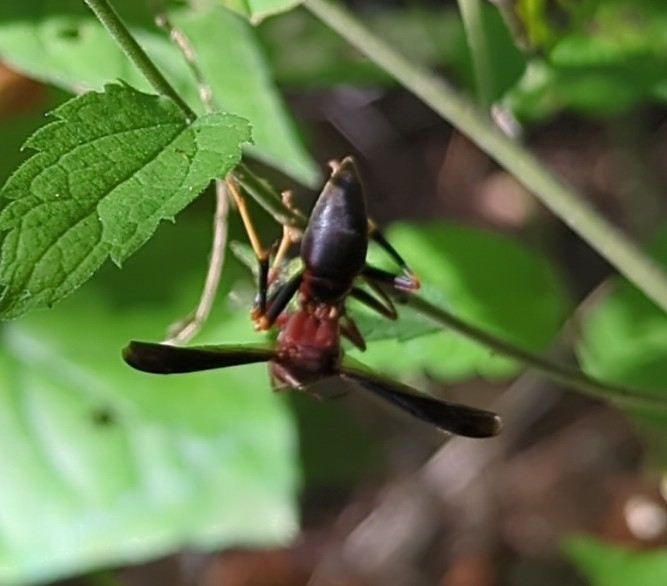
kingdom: Animalia
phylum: Arthropoda
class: Insecta
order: Hymenoptera
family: Eumenidae
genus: Polistes
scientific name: Polistes metricus
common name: Metric paper wasp
